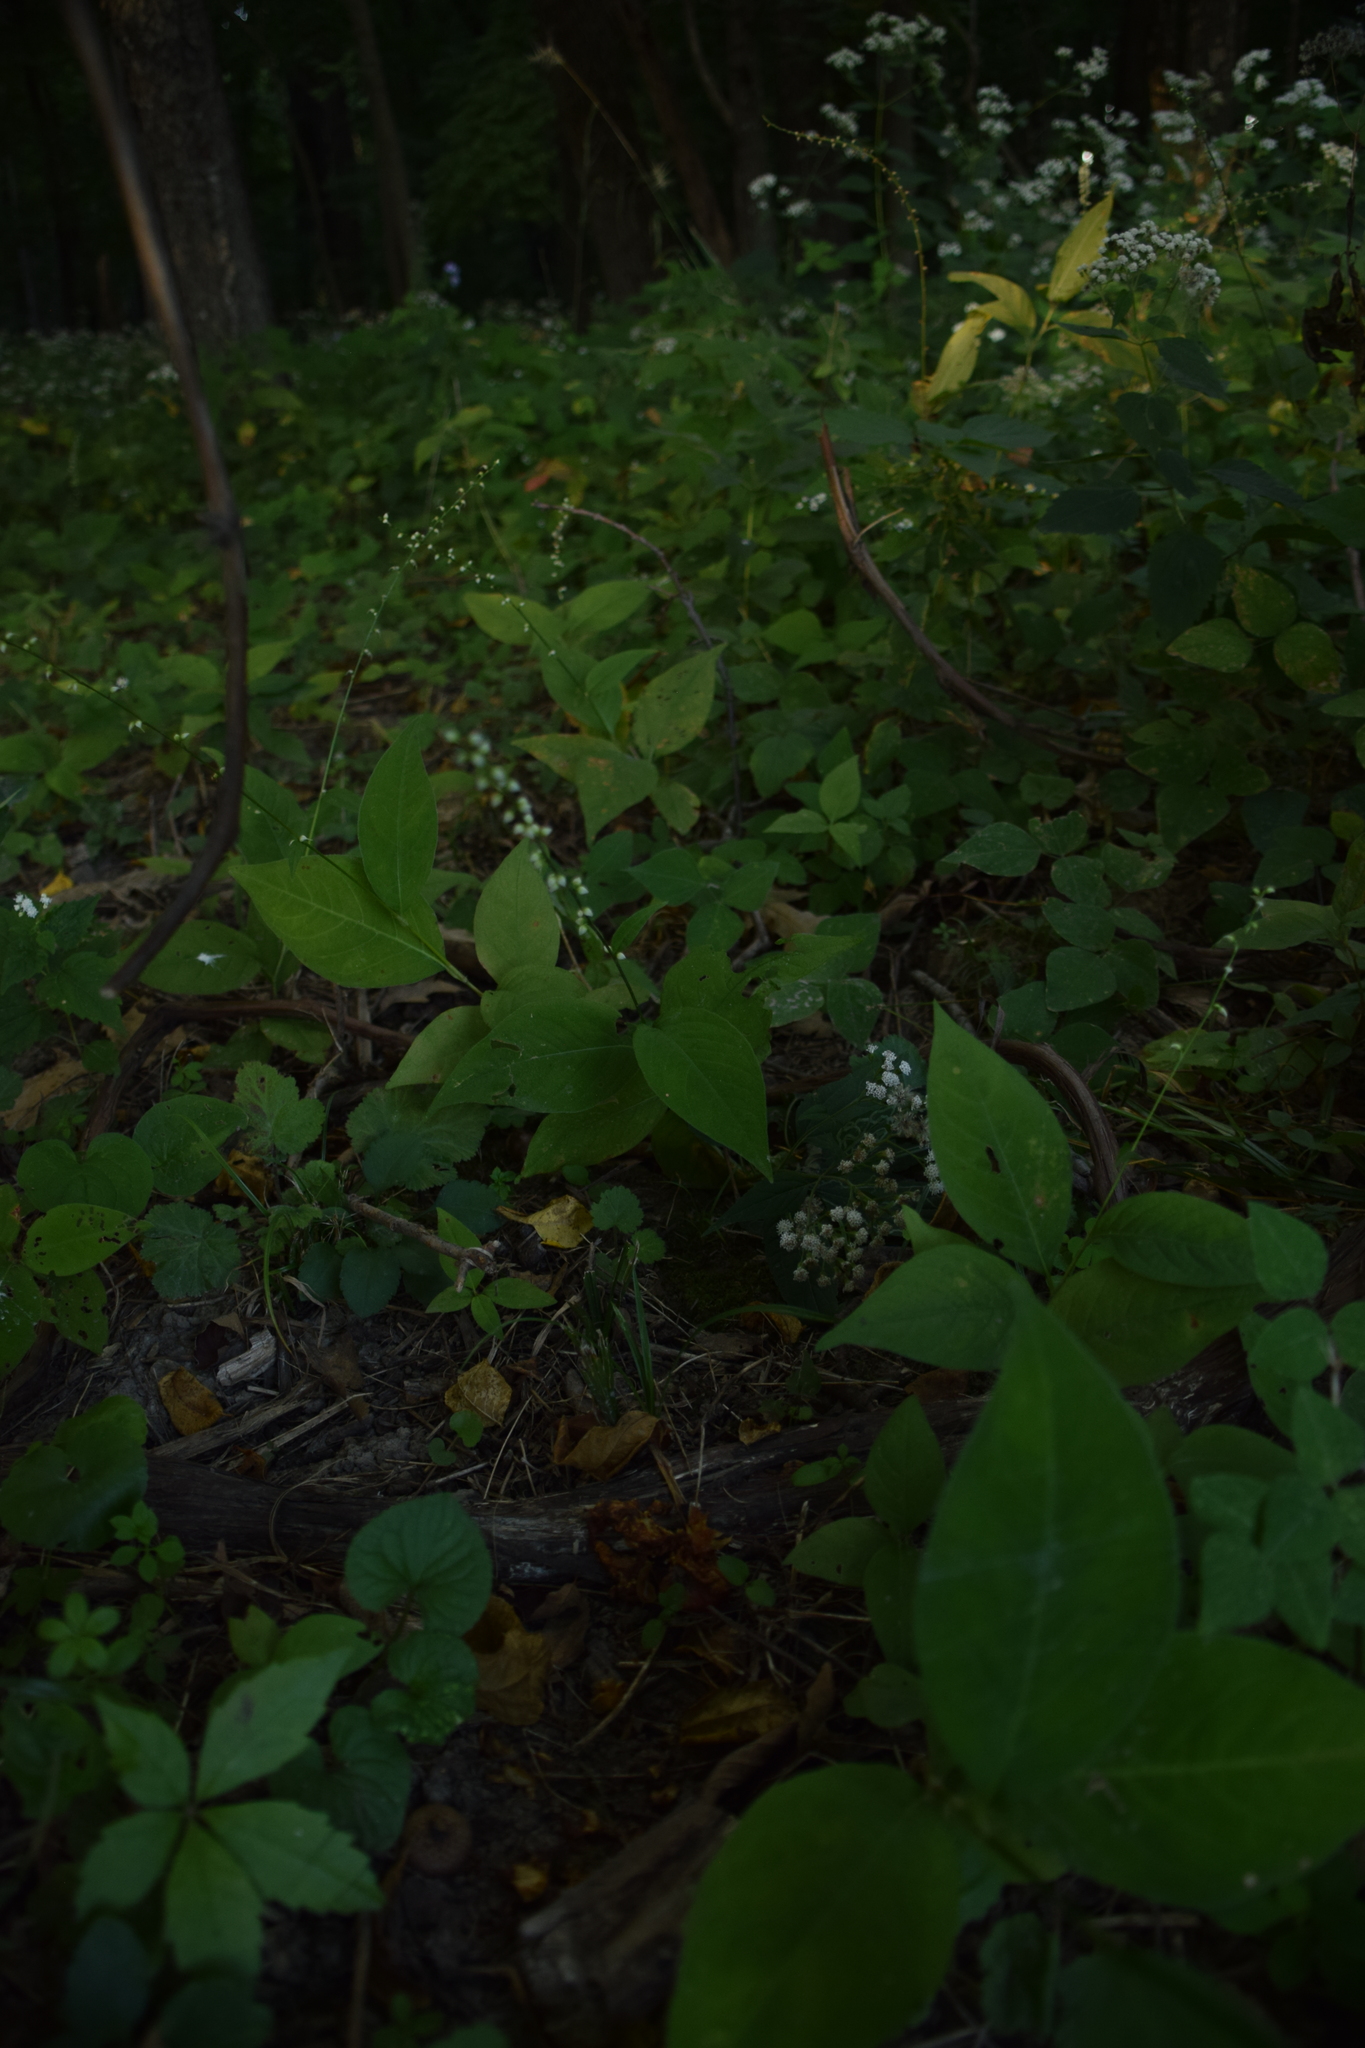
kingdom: Plantae
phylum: Tracheophyta
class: Magnoliopsida
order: Caryophyllales
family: Polygonaceae
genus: Persicaria
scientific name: Persicaria virginiana
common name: Jumpseed
